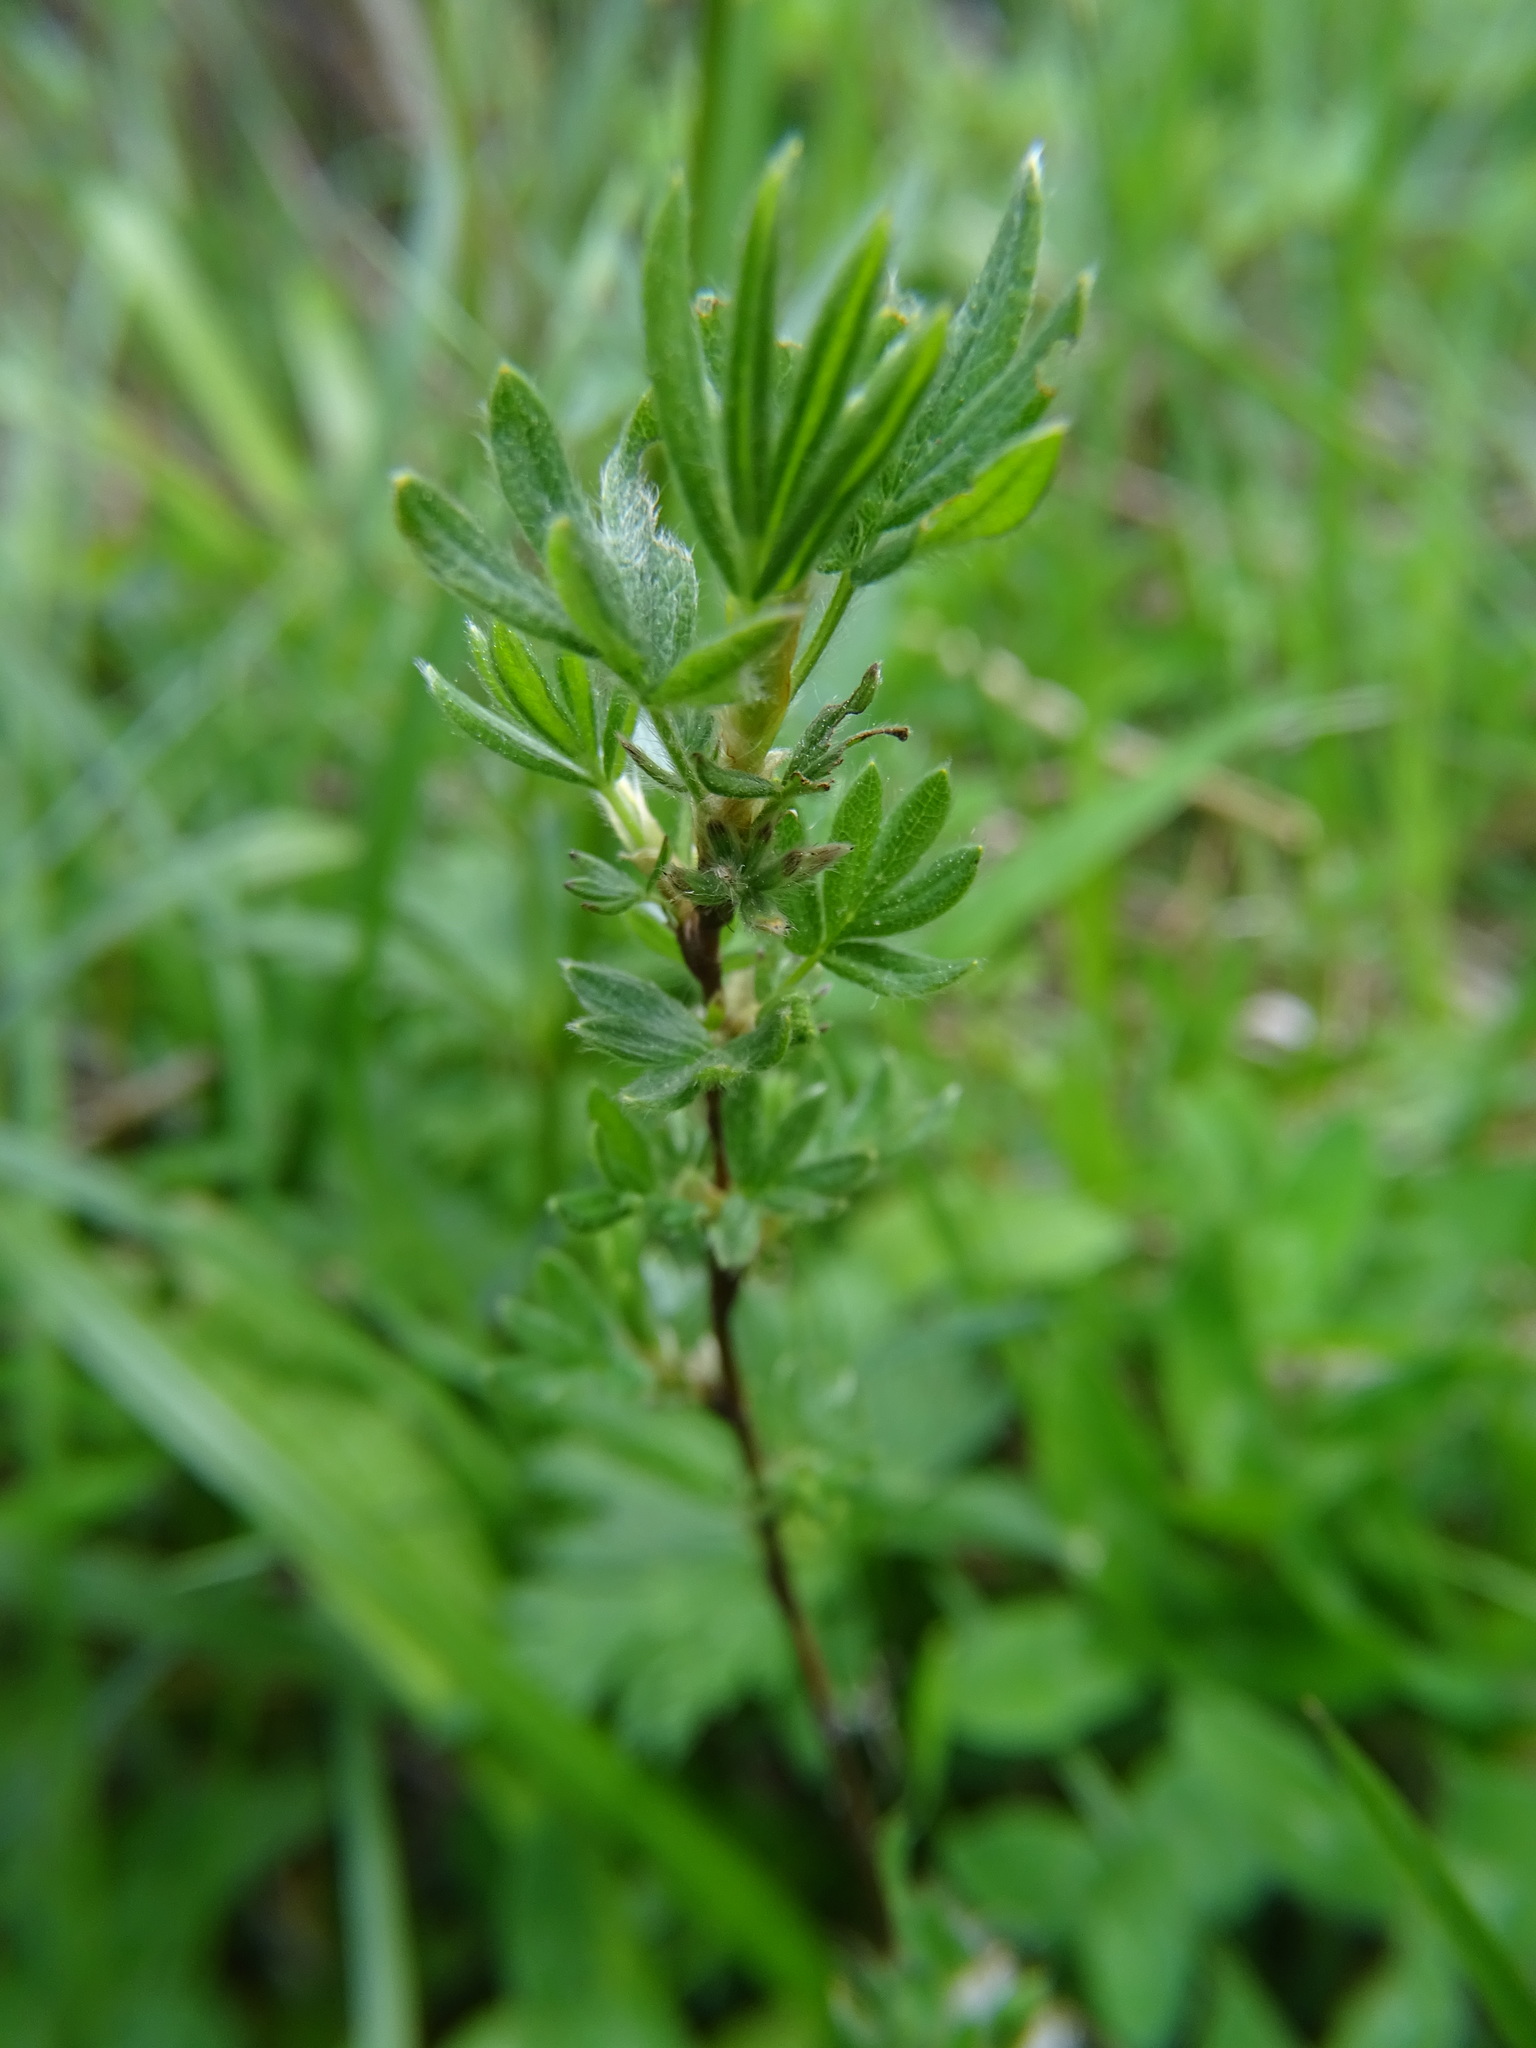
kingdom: Plantae
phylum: Tracheophyta
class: Magnoliopsida
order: Rosales
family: Rosaceae
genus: Dasiphora
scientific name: Dasiphora fruticosa
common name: Shrubby cinquefoil
